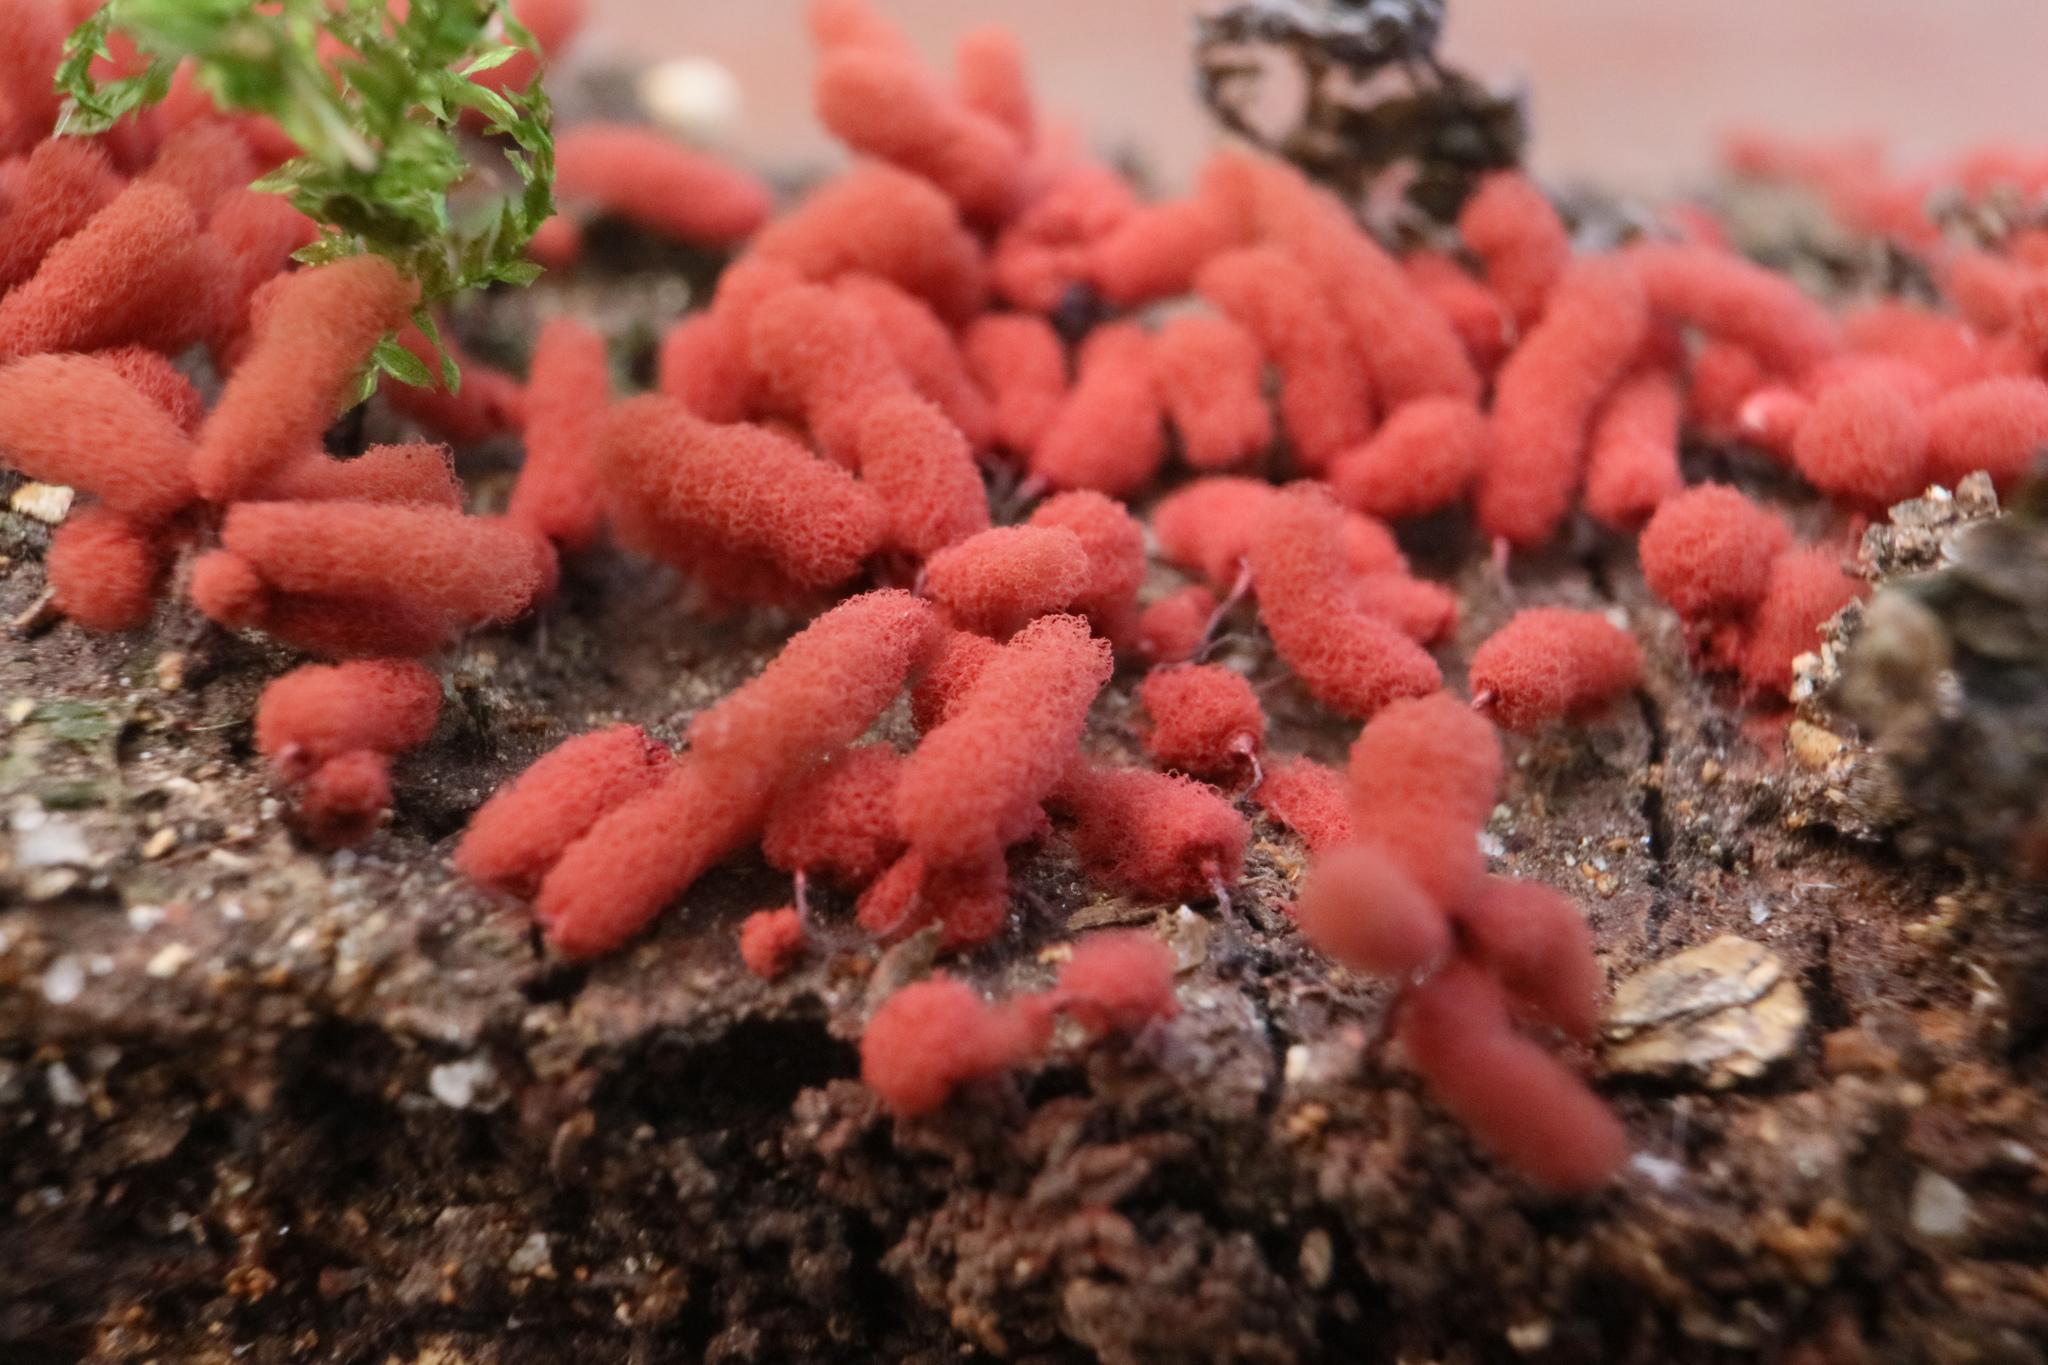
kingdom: Protozoa
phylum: Mycetozoa
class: Myxomycetes
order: Trichiales
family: Arcyriaceae
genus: Arcyria
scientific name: Arcyria denudata
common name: Carnival candy slime mold
